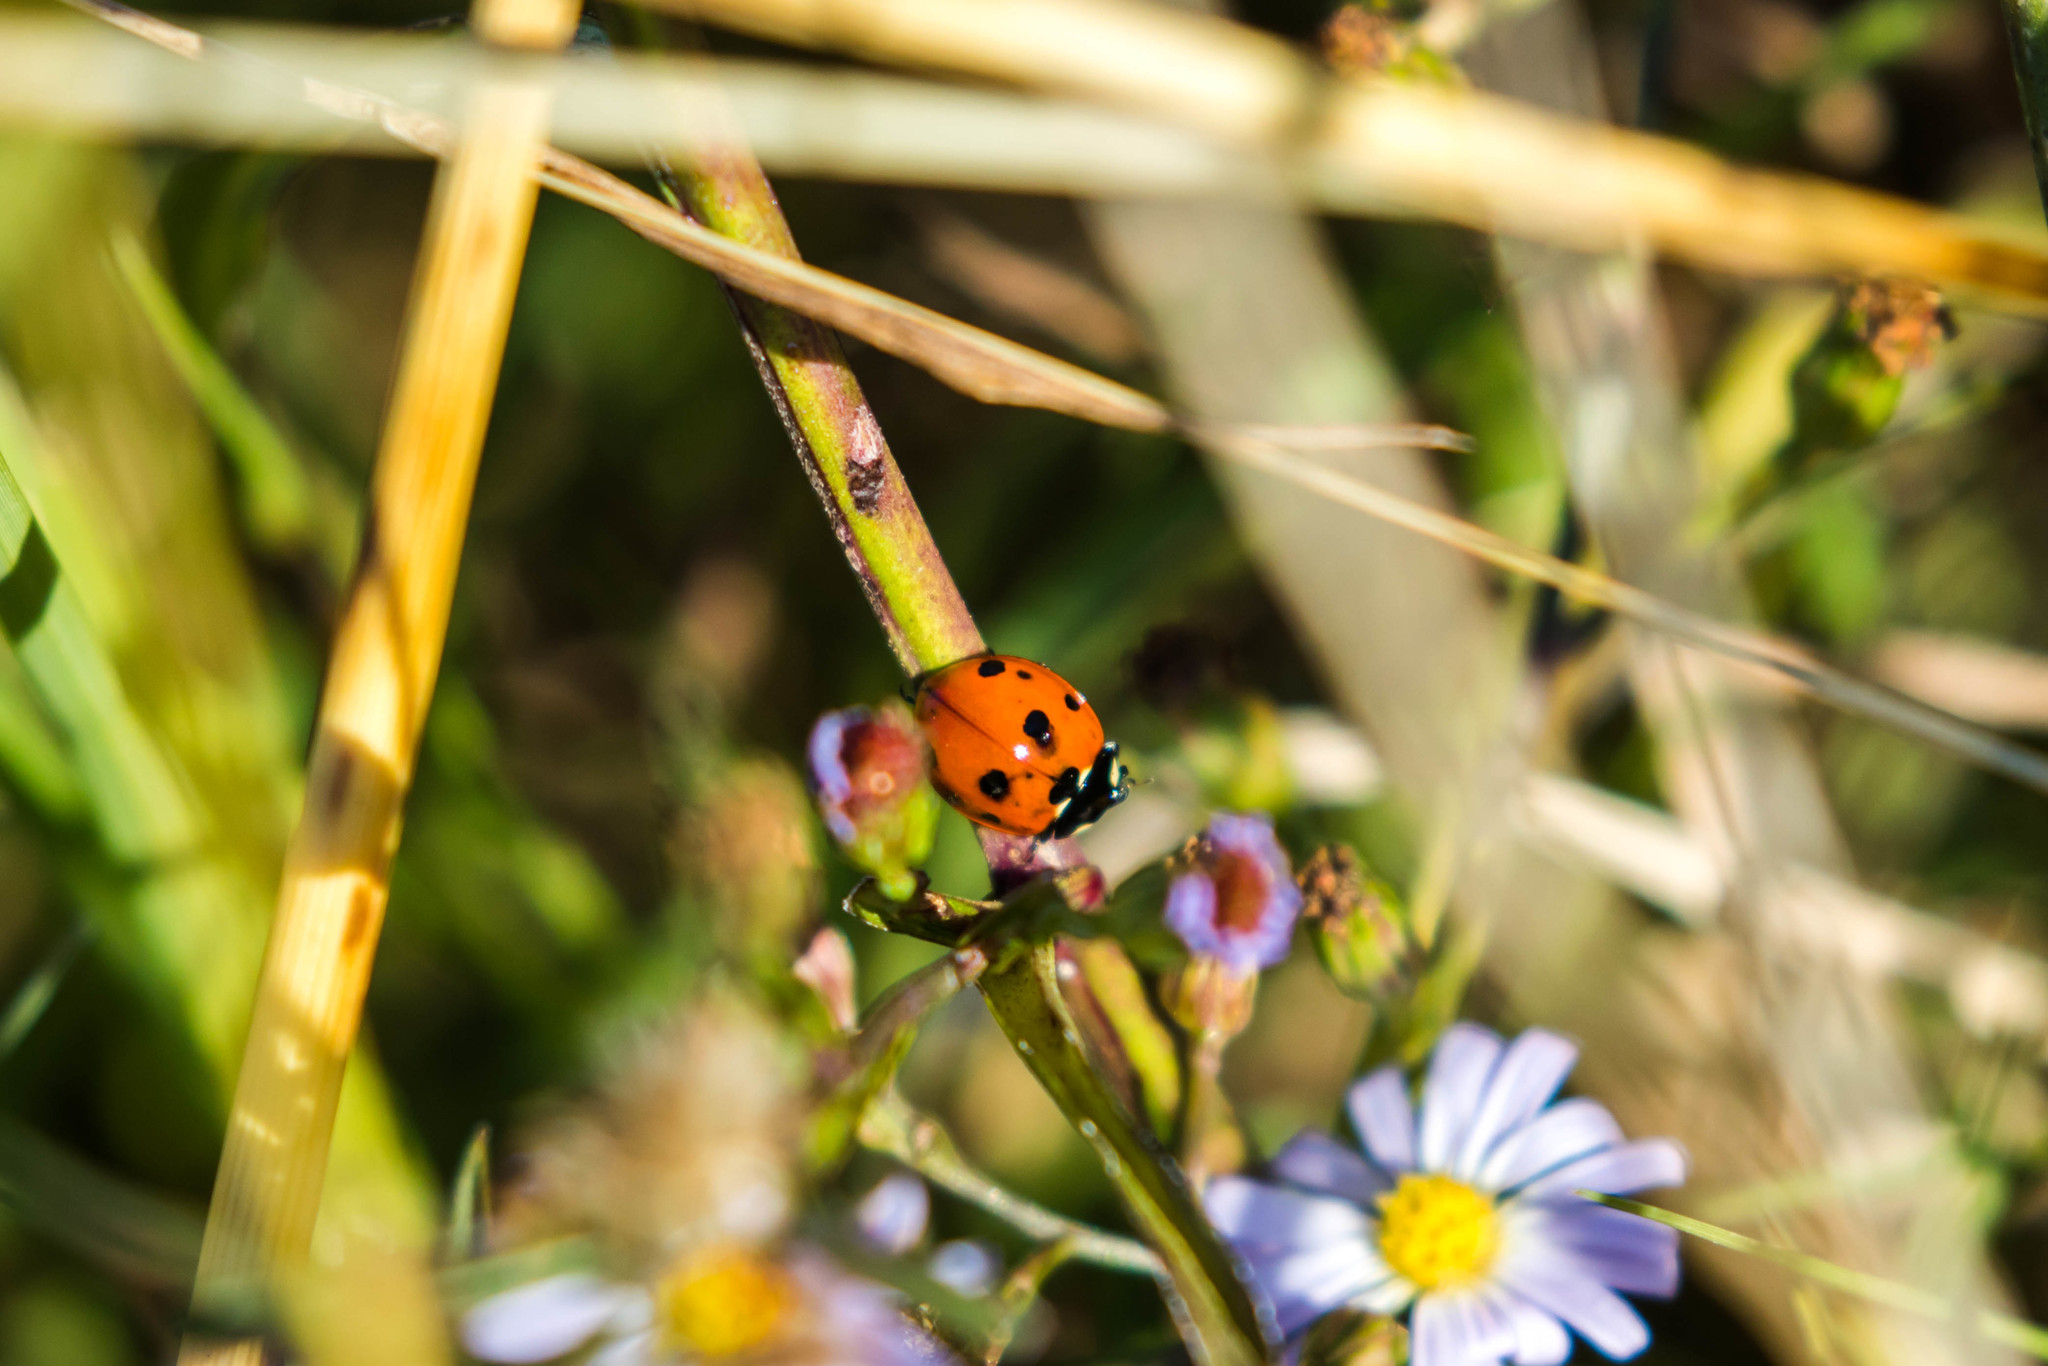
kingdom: Animalia
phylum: Arthropoda
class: Insecta
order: Coleoptera
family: Coccinellidae
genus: Coccinella
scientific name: Coccinella septempunctata
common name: Sevenspotted lady beetle
